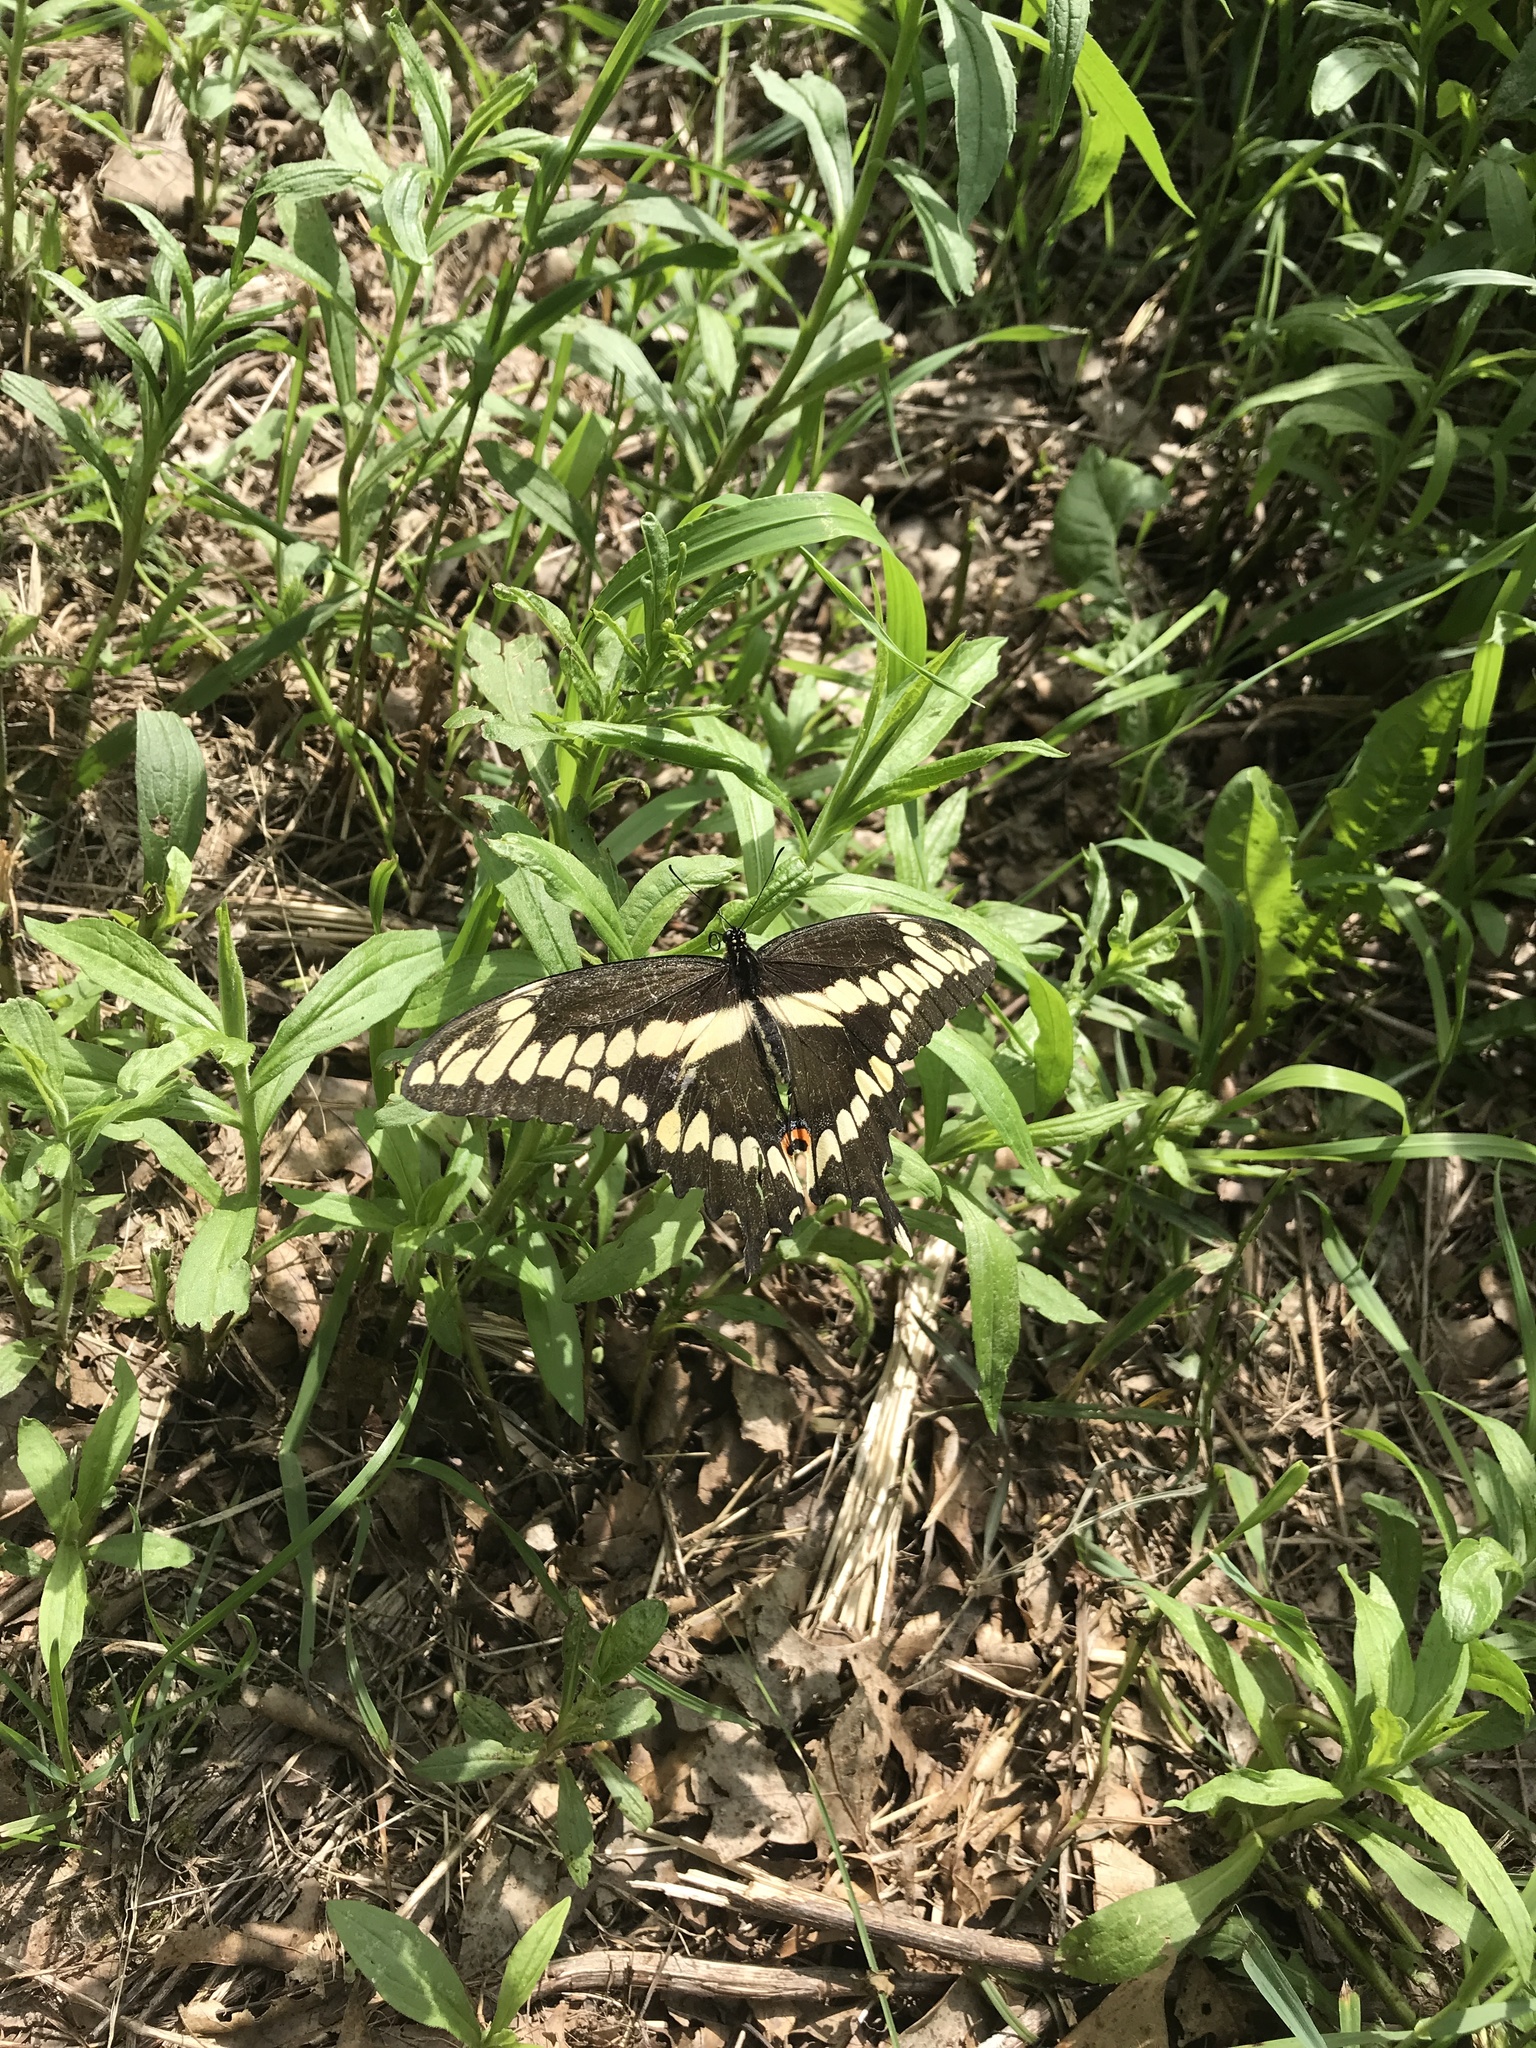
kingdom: Animalia
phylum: Arthropoda
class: Insecta
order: Lepidoptera
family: Papilionidae
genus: Papilio
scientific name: Papilio cresphontes
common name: Giant swallowtail
